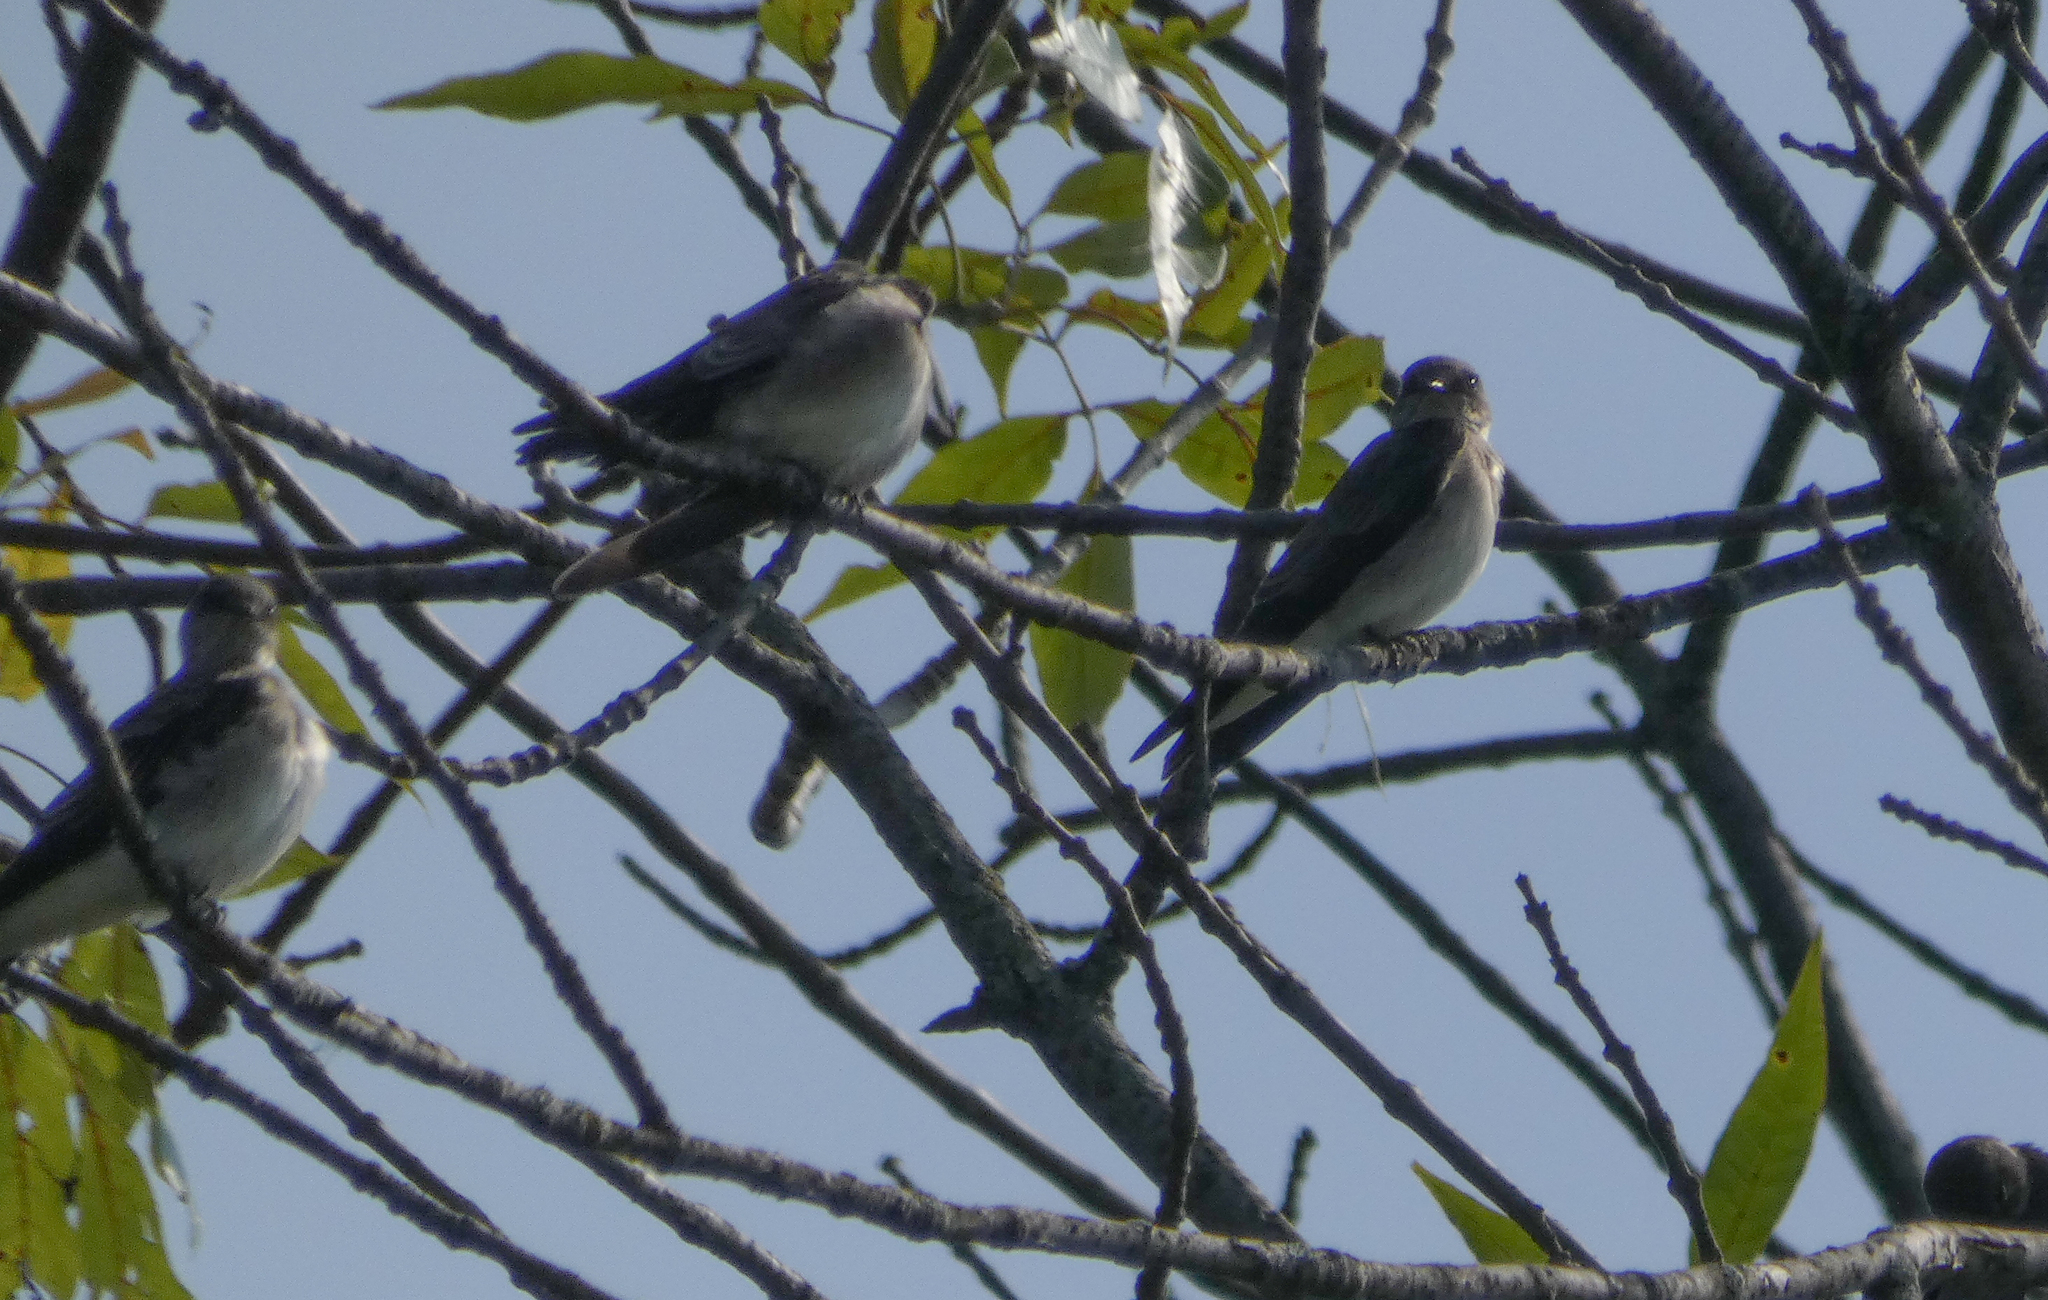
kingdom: Animalia
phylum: Chordata
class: Aves
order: Passeriformes
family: Hirundinidae
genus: Stelgidopteryx
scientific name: Stelgidopteryx serripennis
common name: Northern rough-winged swallow
